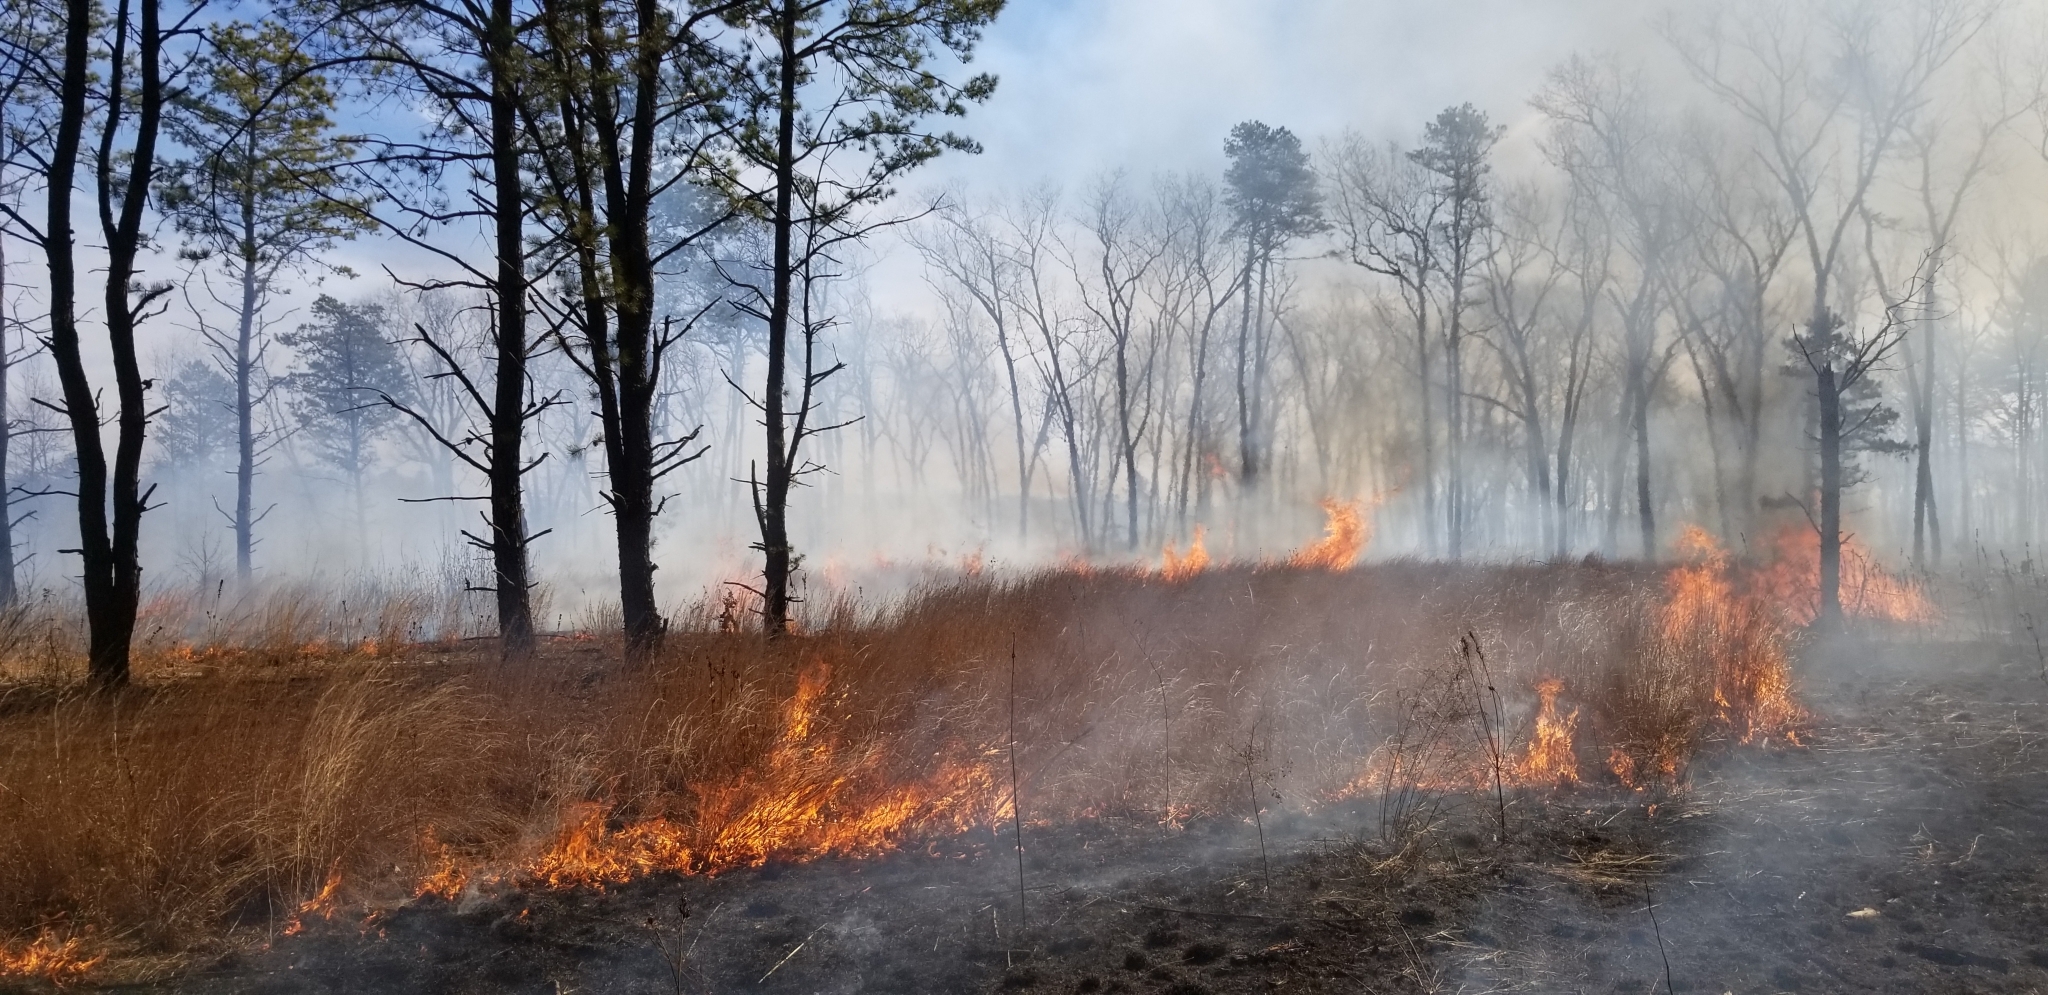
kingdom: Plantae
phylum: Tracheophyta
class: Pinopsida
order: Pinales
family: Pinaceae
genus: Pinus
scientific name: Pinus rigida
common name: Pitch pine
